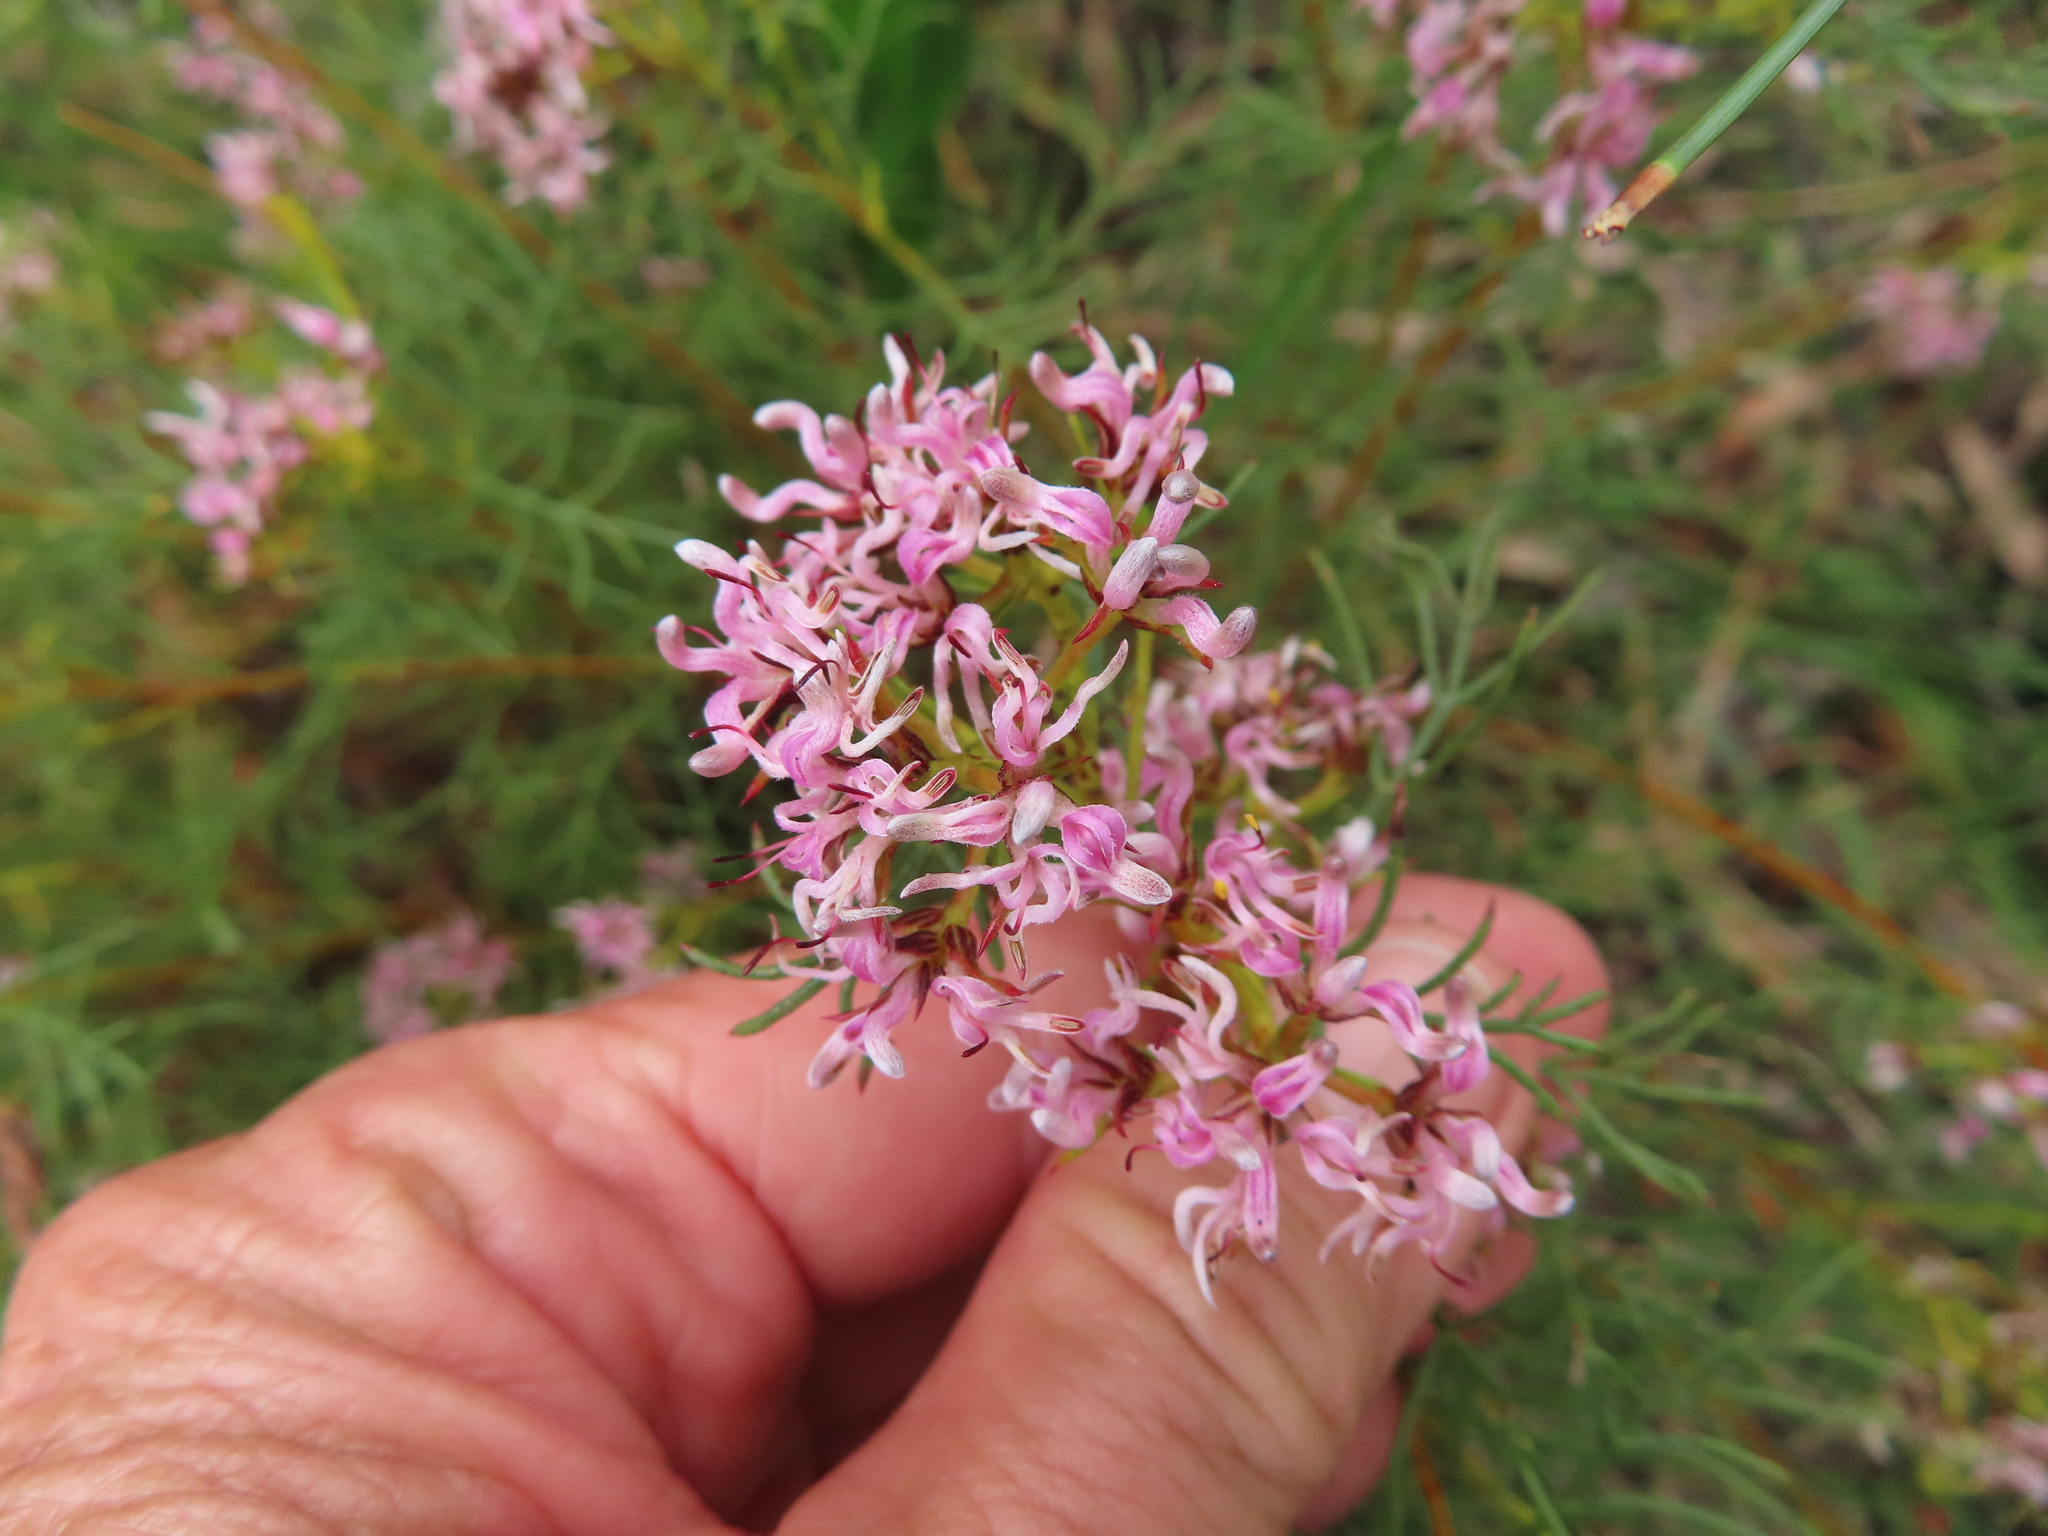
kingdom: Plantae
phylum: Tracheophyta
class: Magnoliopsida
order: Proteales
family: Proteaceae
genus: Serruria
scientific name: Serruria bolusii
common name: Agulhas spiderhead
